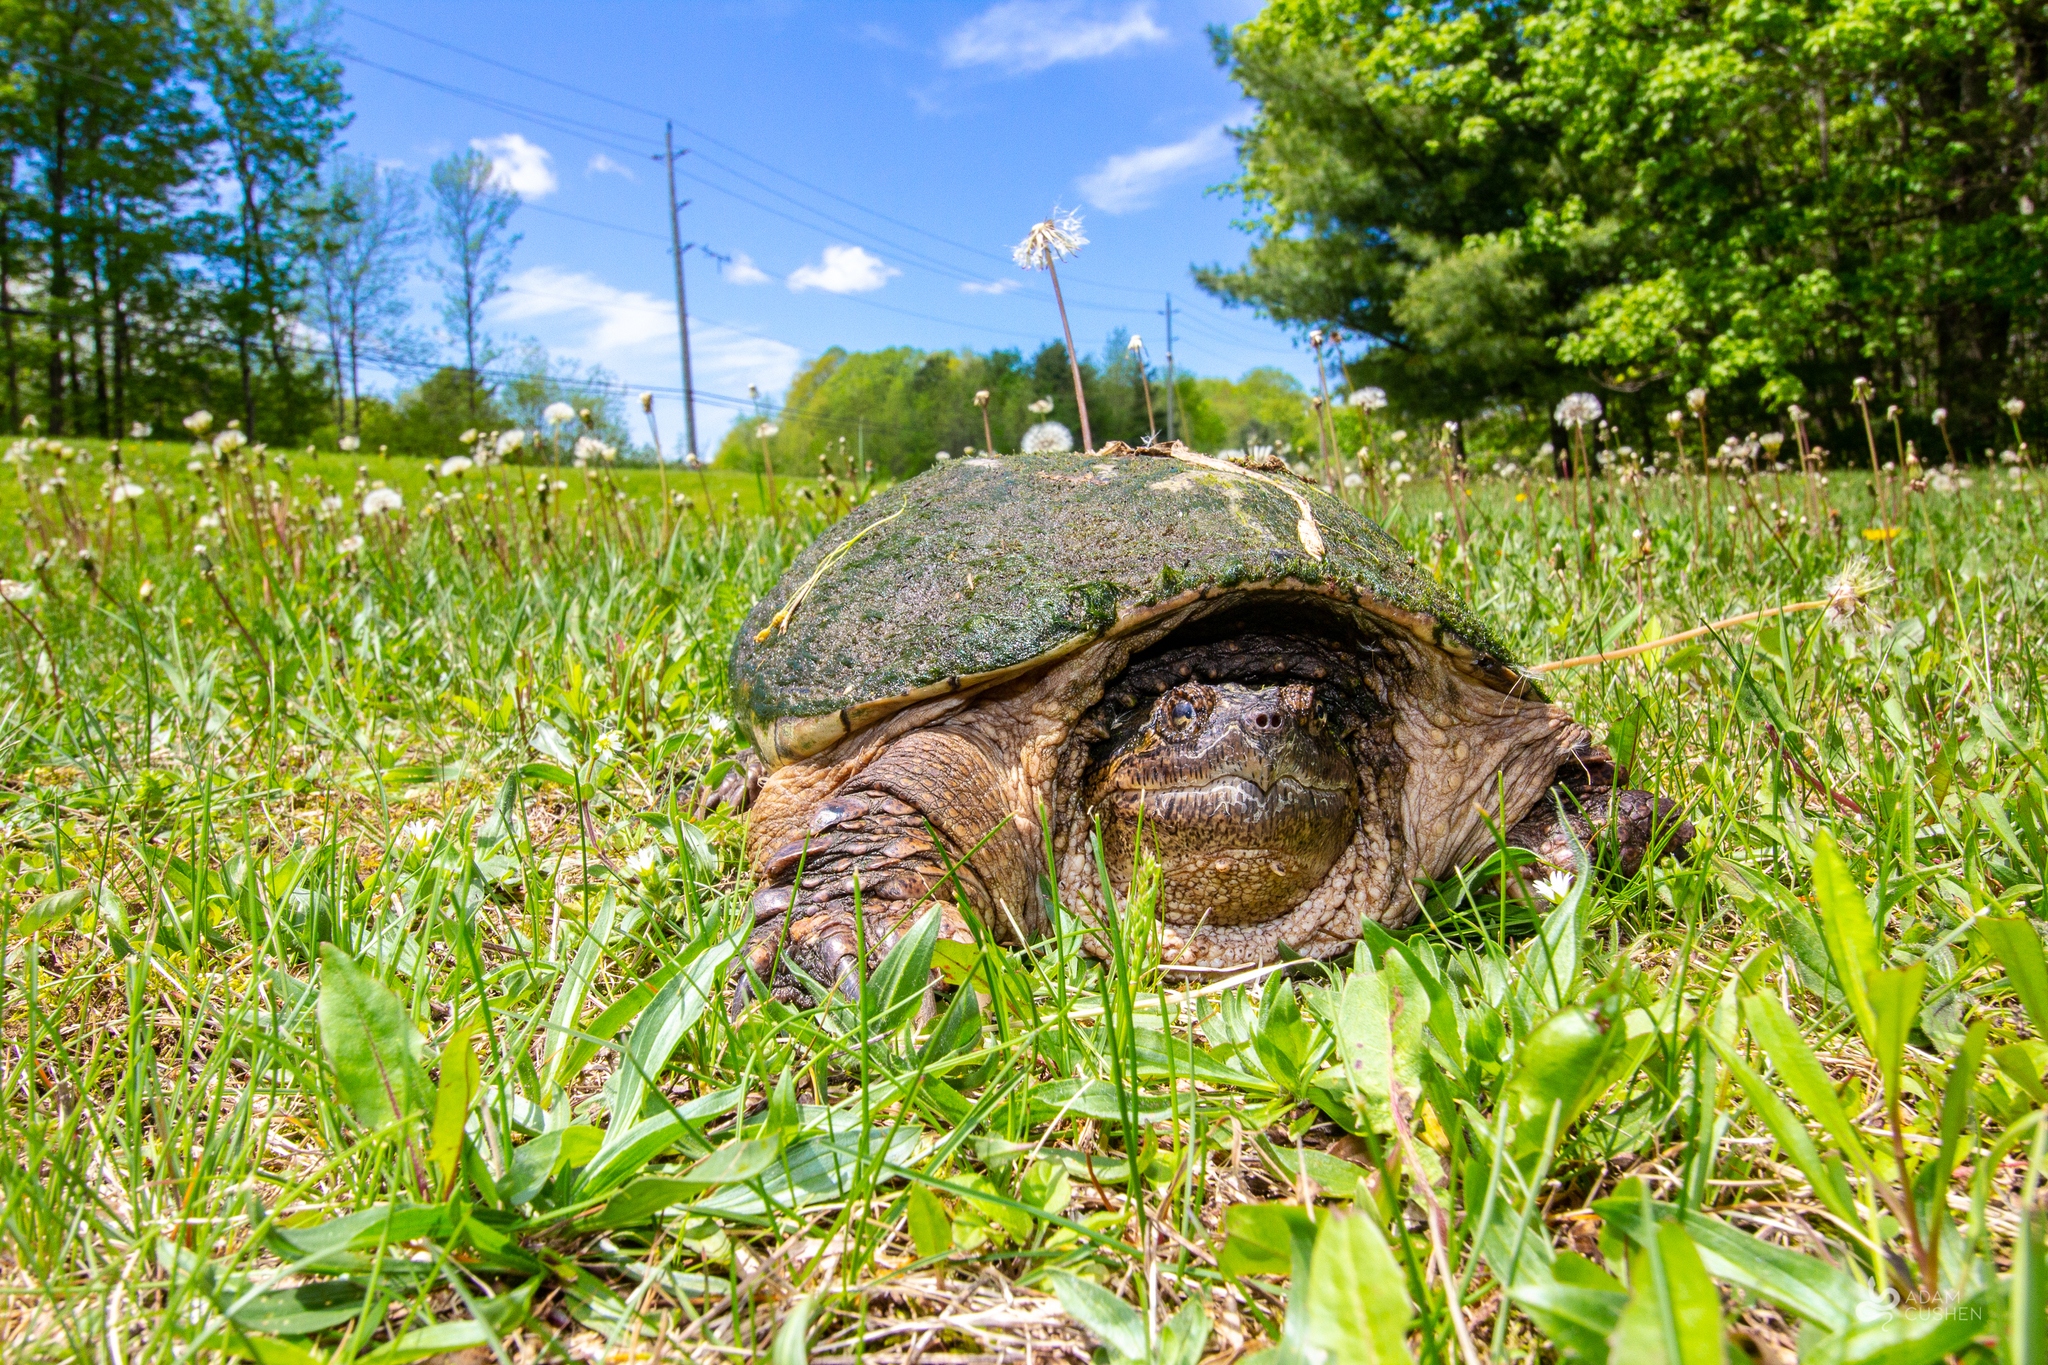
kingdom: Animalia
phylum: Chordata
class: Testudines
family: Chelydridae
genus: Chelydra
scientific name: Chelydra serpentina
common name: Common snapping turtle
